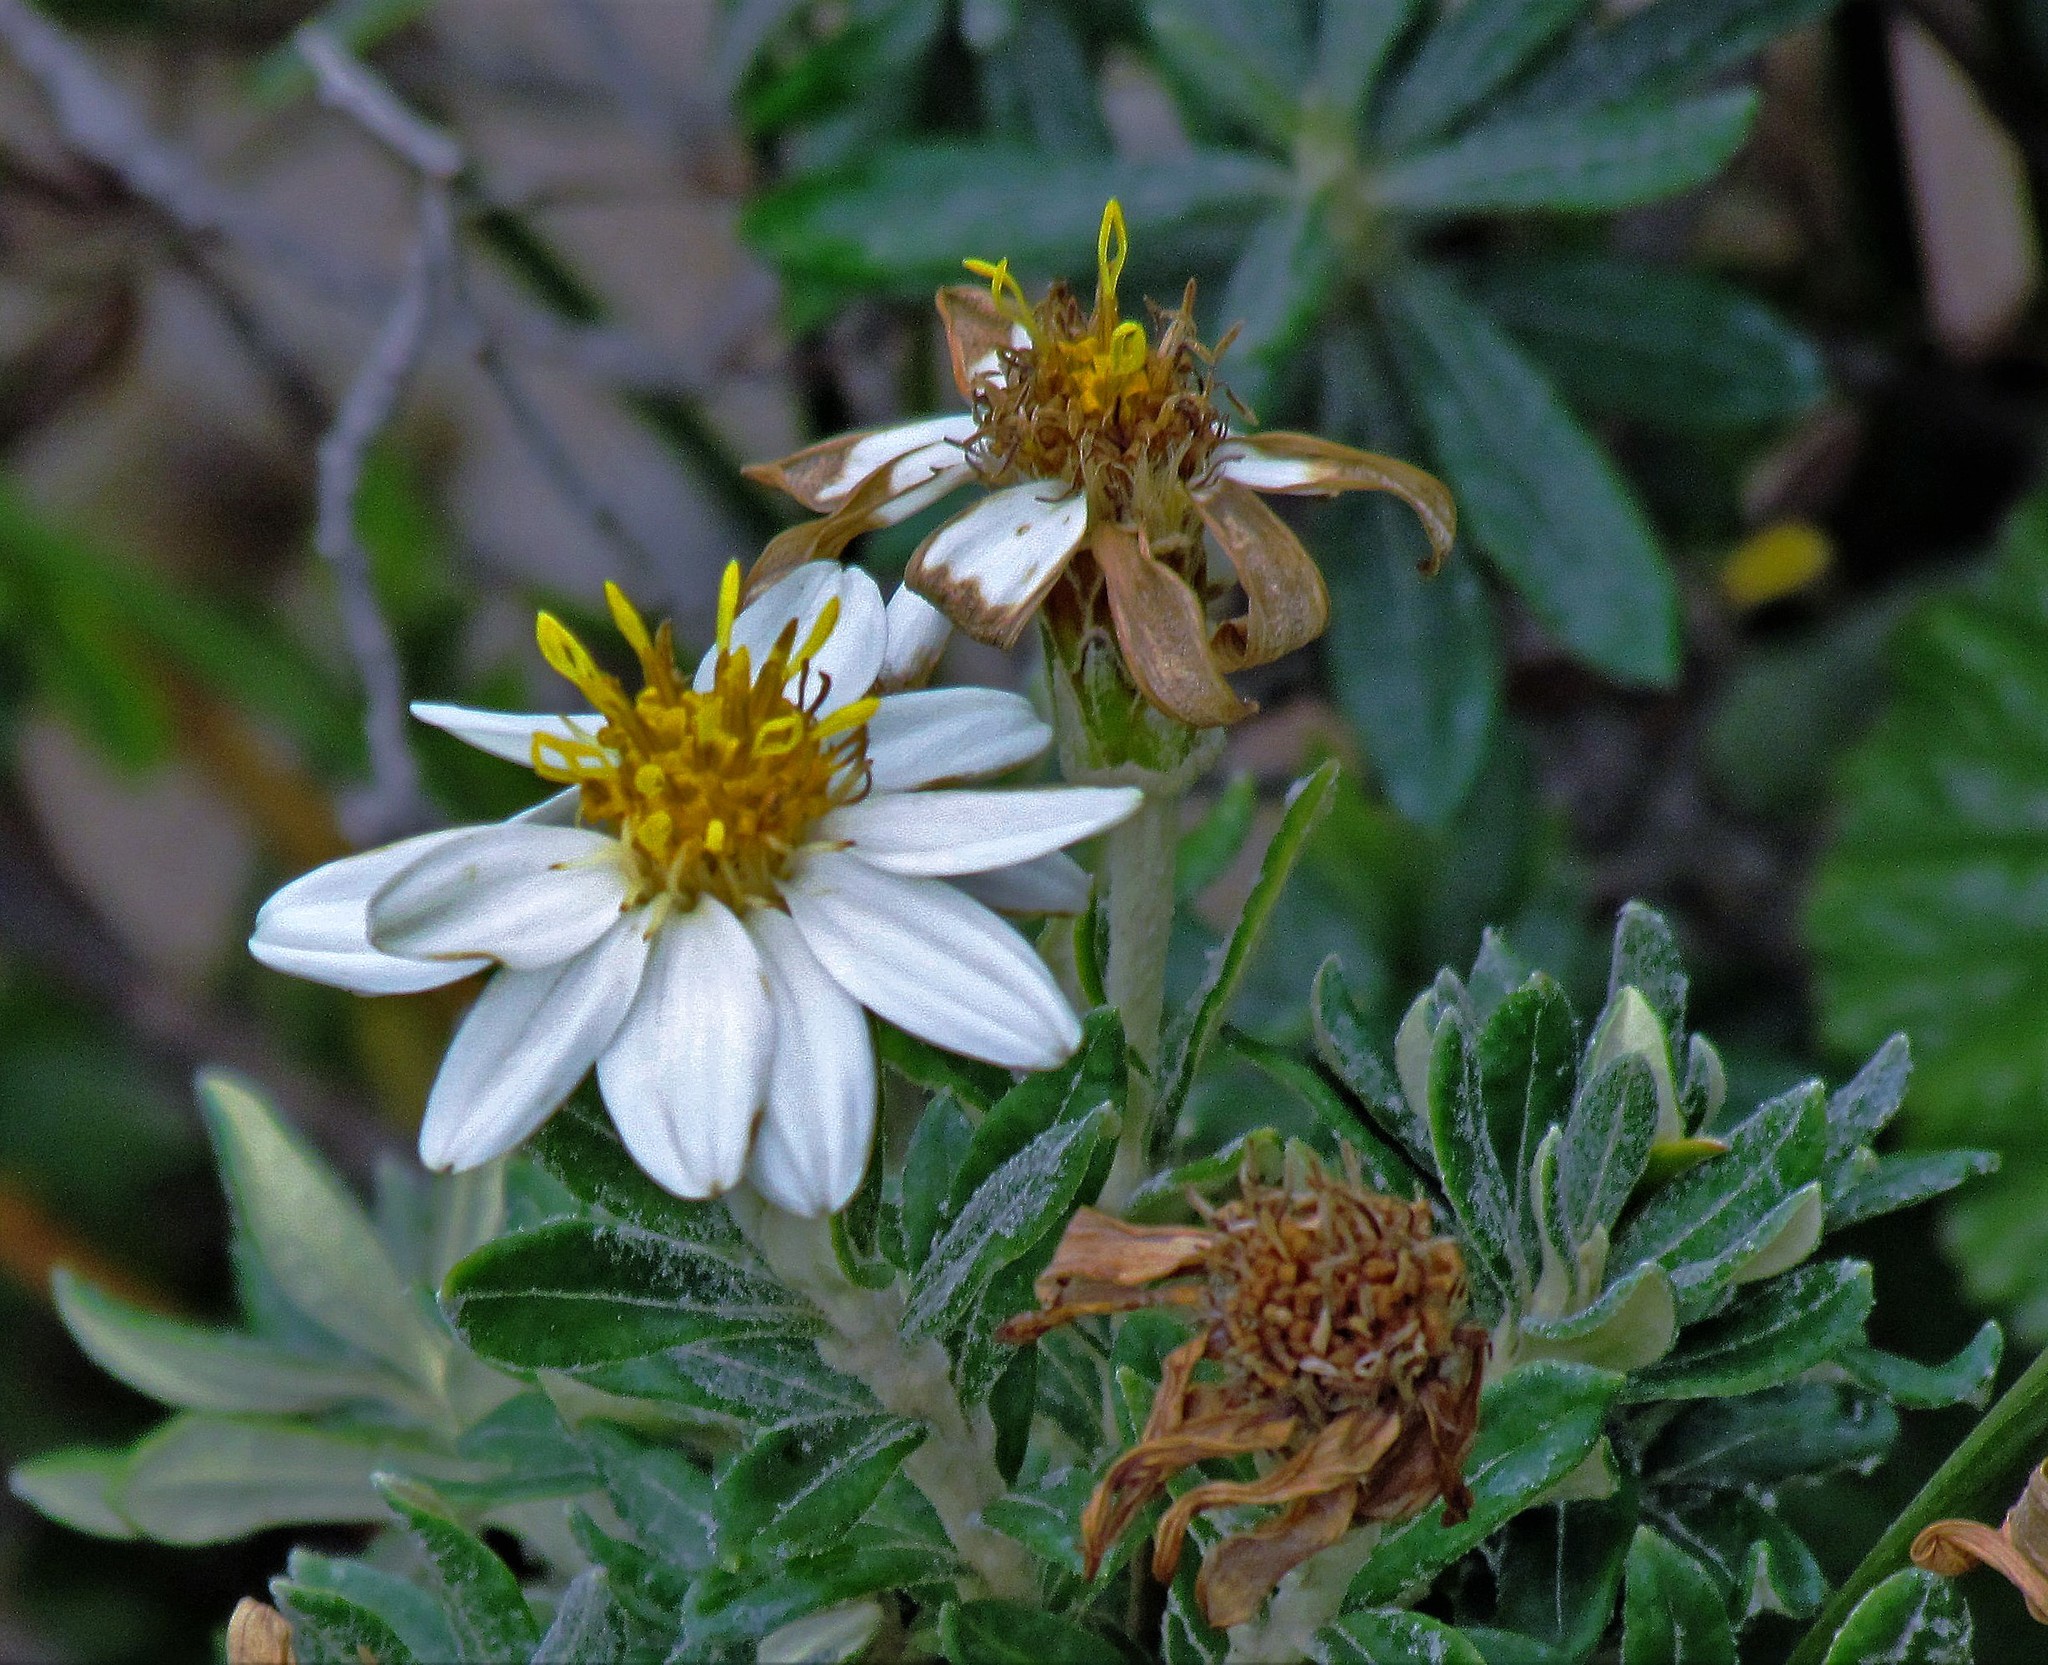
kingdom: Plantae
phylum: Tracheophyta
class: Magnoliopsida
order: Asterales
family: Asteraceae
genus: Chiliotrichum
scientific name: Chiliotrichum diffusum
